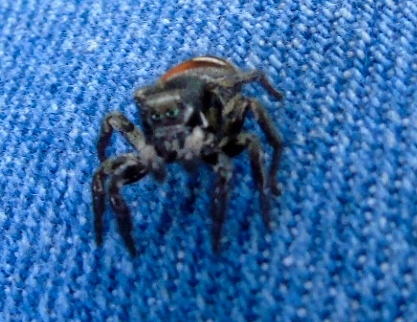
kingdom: Animalia
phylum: Arthropoda
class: Arachnida
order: Araneae
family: Salticidae
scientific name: Salticidae
